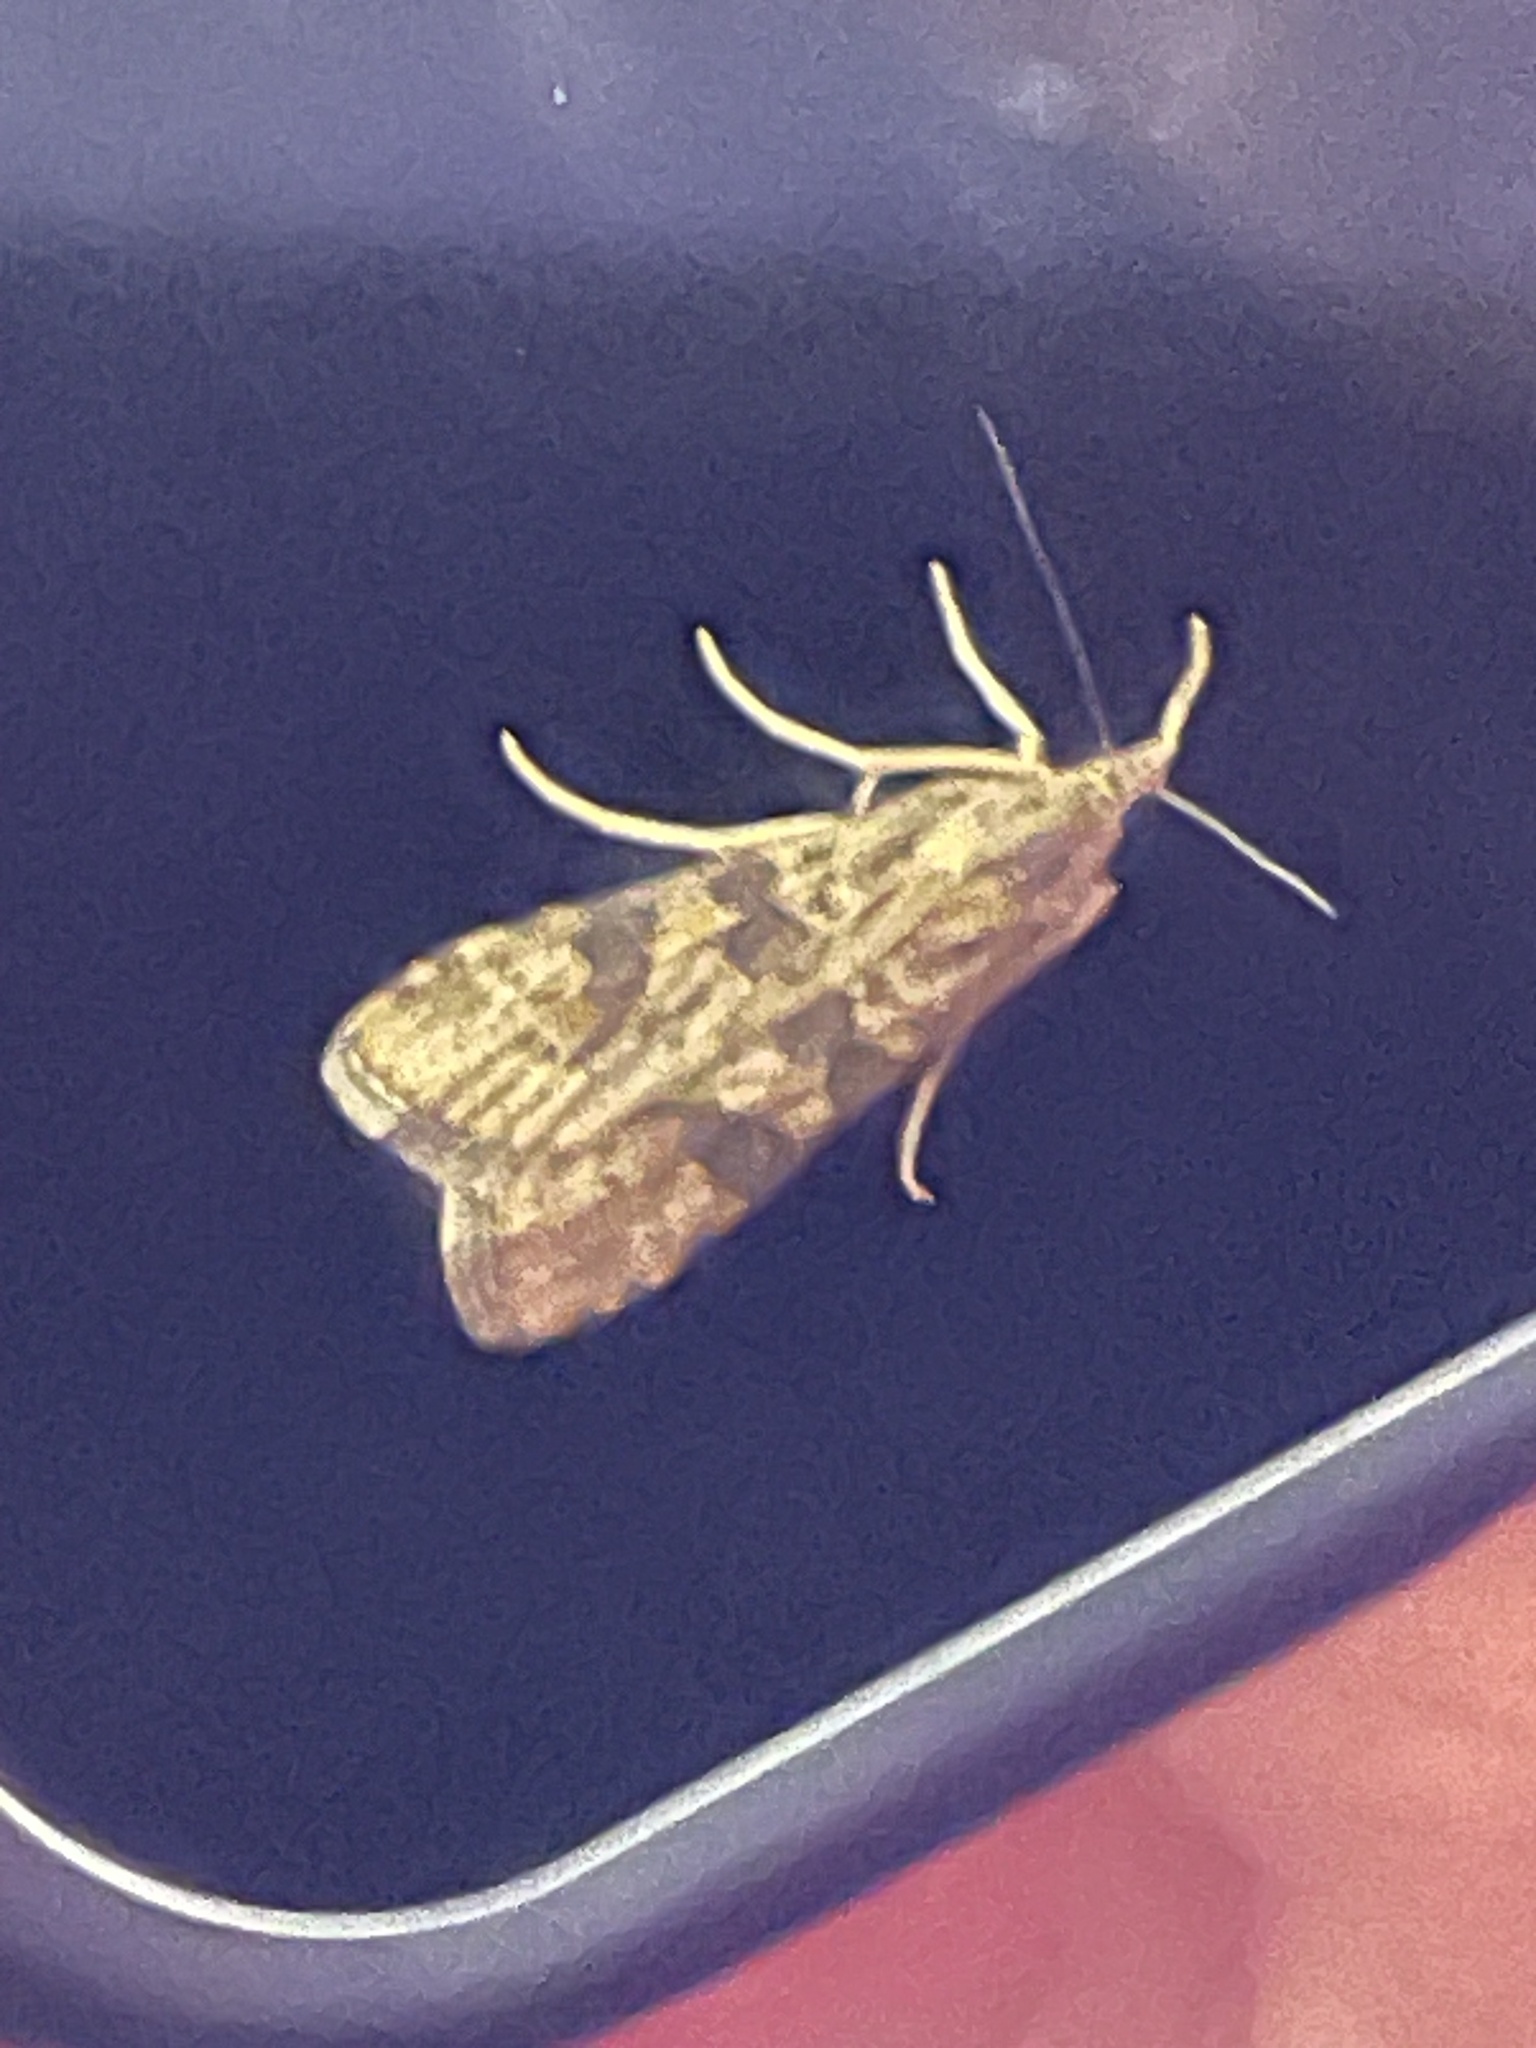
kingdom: Animalia
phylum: Arthropoda
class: Insecta
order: Lepidoptera
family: Crambidae
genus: Nomophila
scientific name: Nomophila nearctica
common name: American rush veneer
